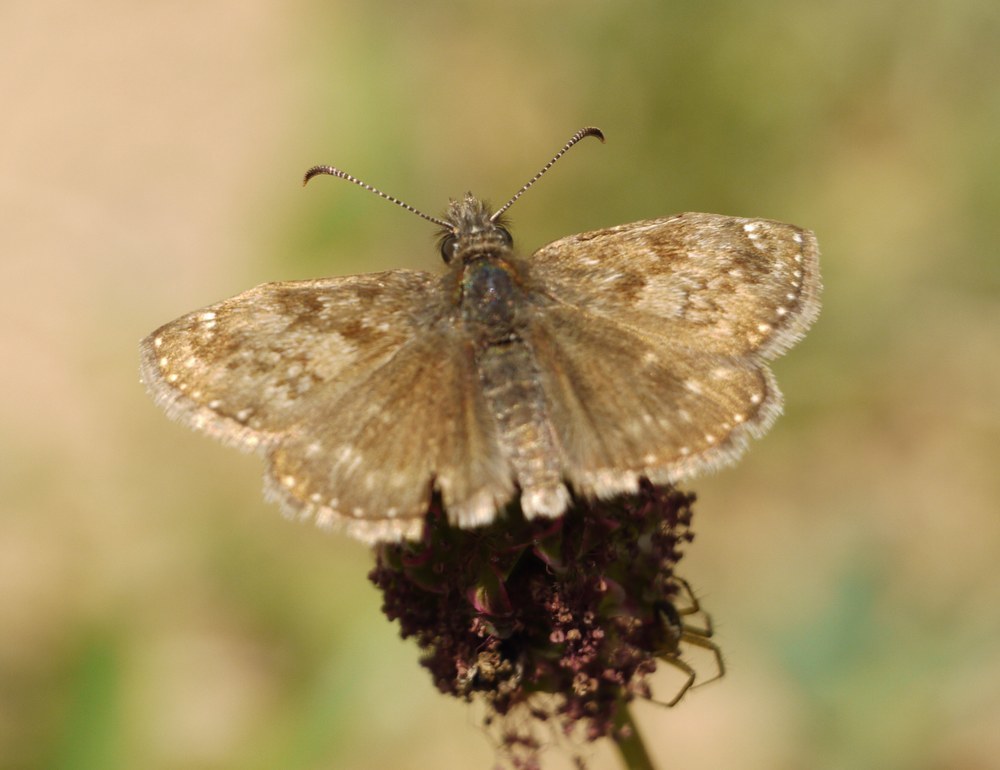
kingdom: Animalia
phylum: Arthropoda
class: Insecta
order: Lepidoptera
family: Hesperiidae
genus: Erynnis
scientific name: Erynnis tages
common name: Dingy skipper
